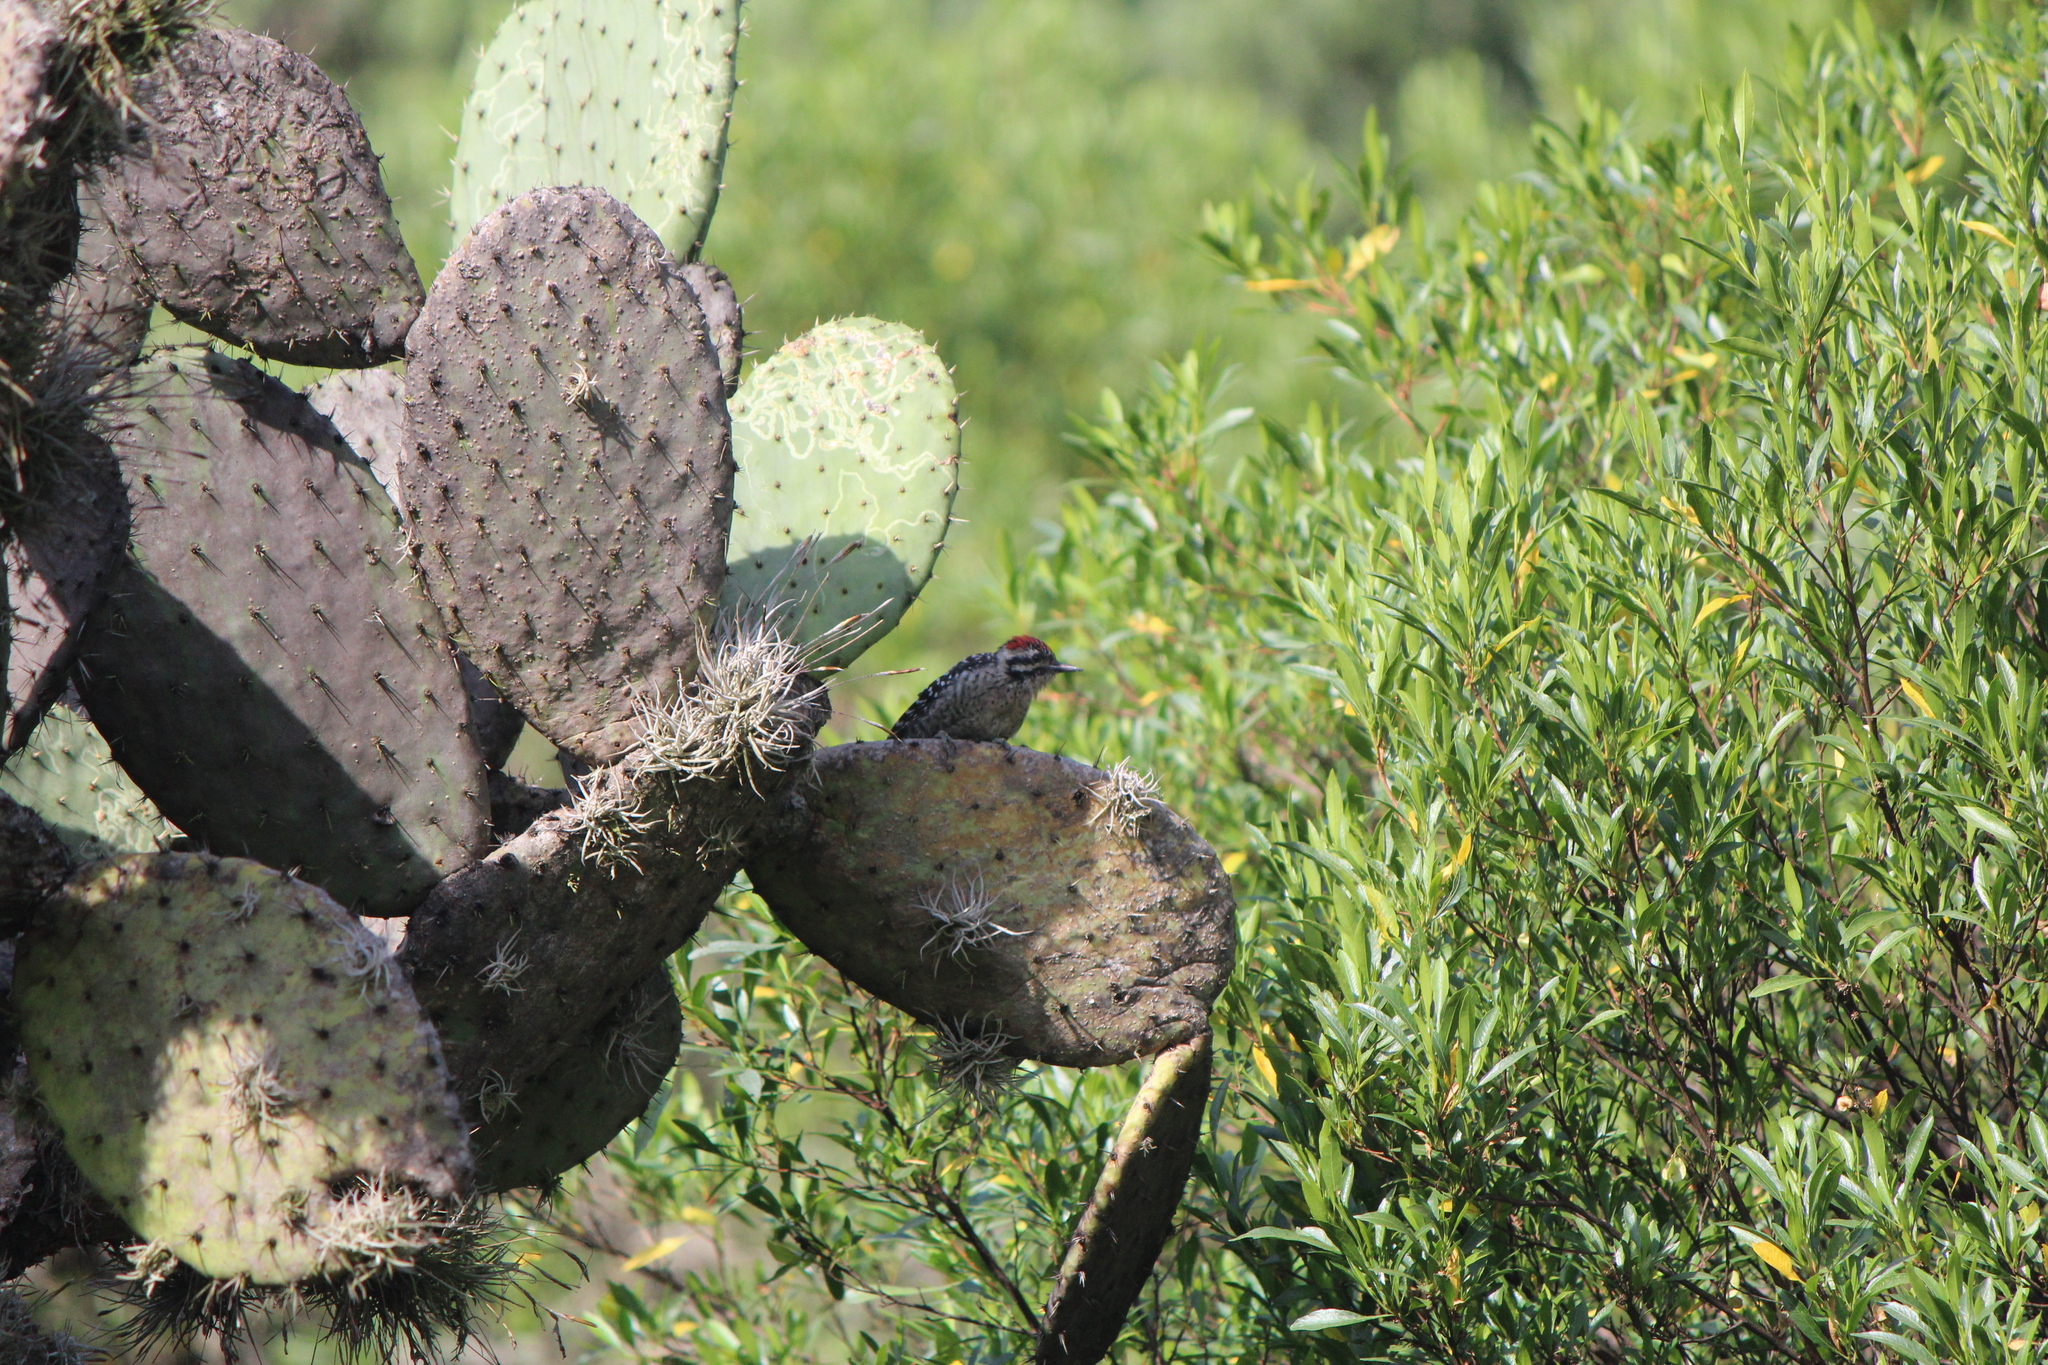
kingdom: Animalia
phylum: Chordata
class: Aves
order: Piciformes
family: Picidae
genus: Dryobates
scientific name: Dryobates scalaris
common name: Ladder-backed woodpecker
